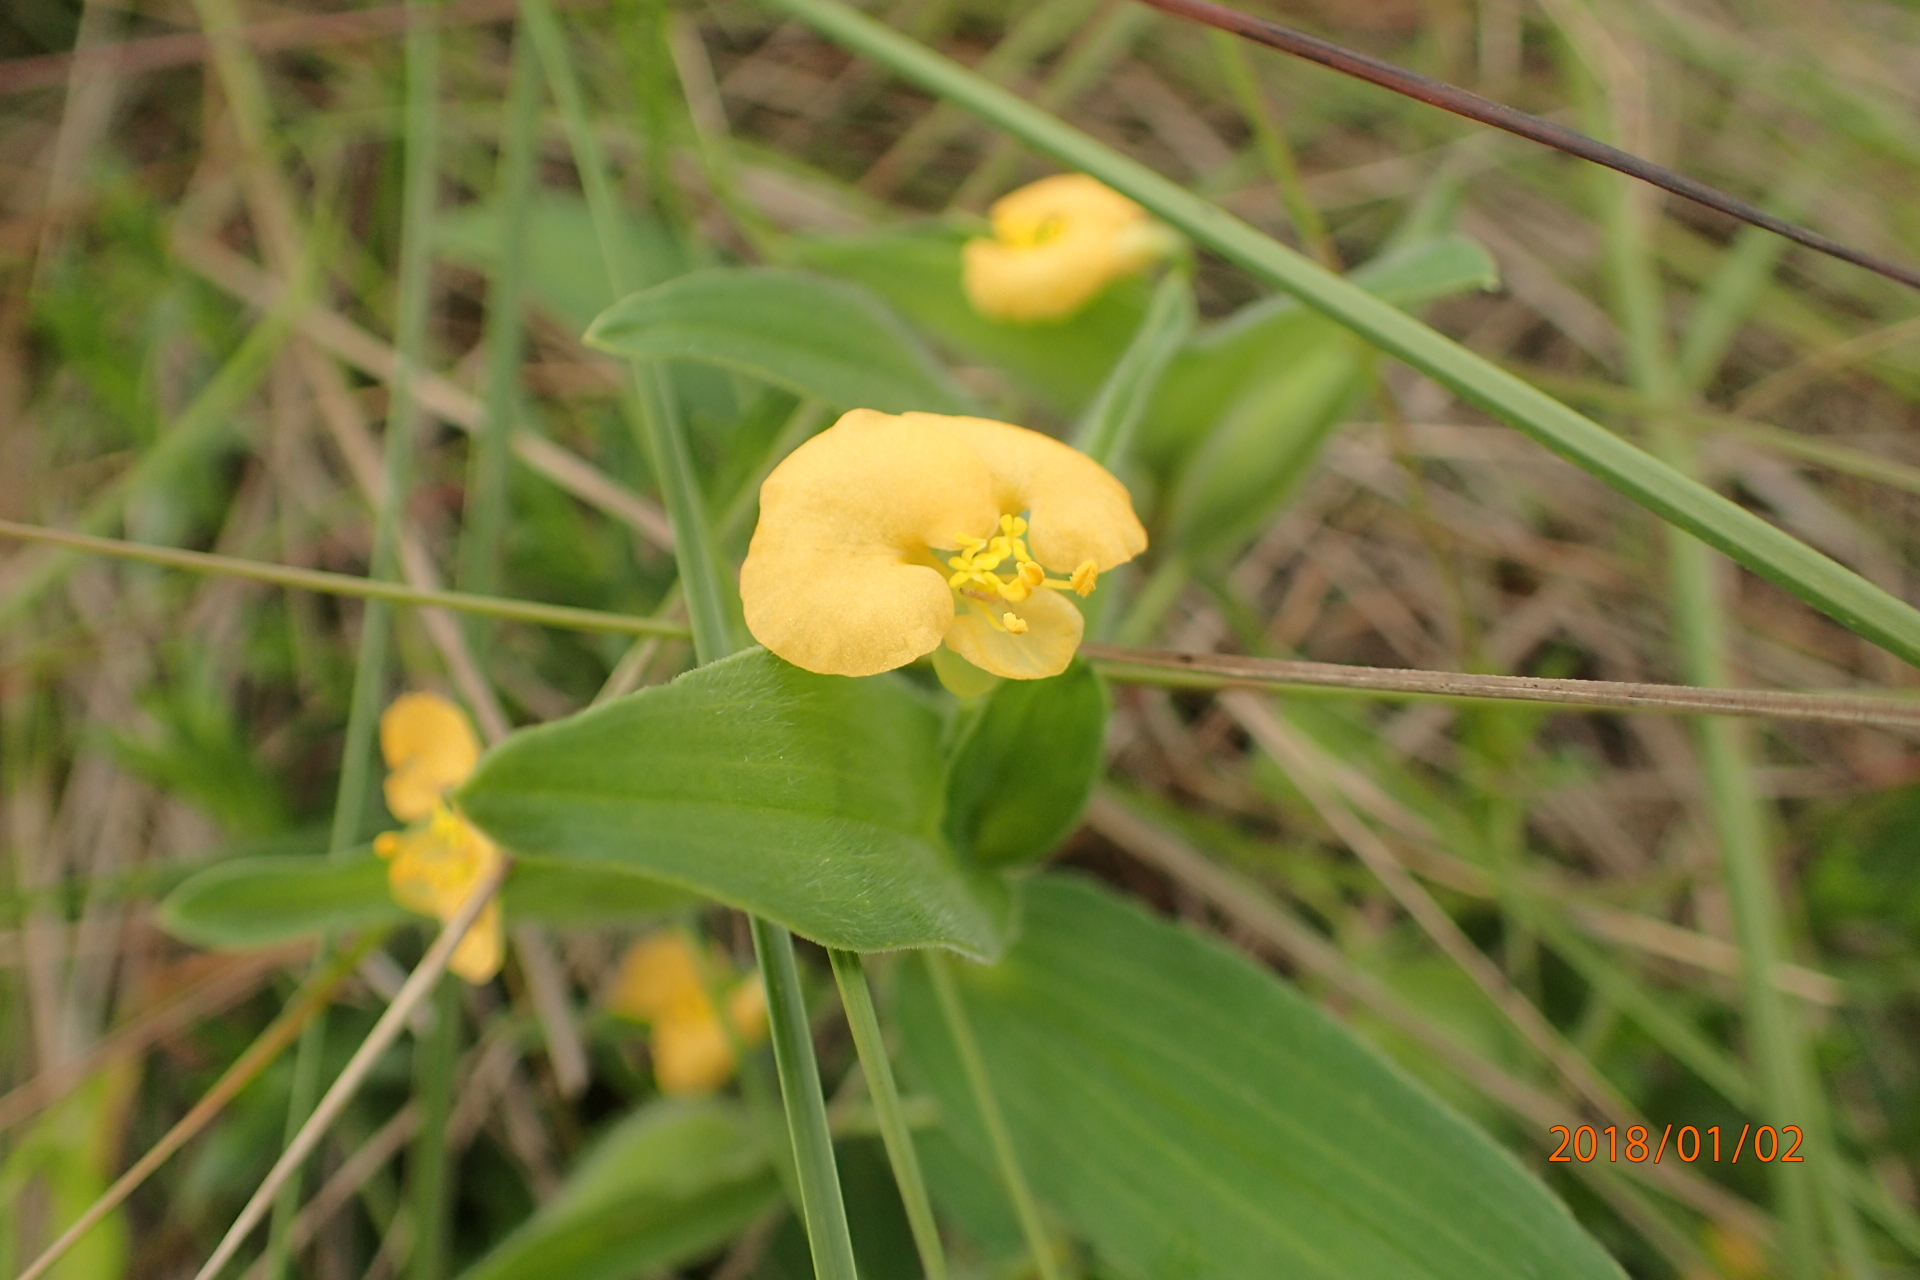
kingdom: Plantae
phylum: Tracheophyta
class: Liliopsida
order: Commelinales
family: Commelinaceae
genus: Commelina
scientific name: Commelina africana
